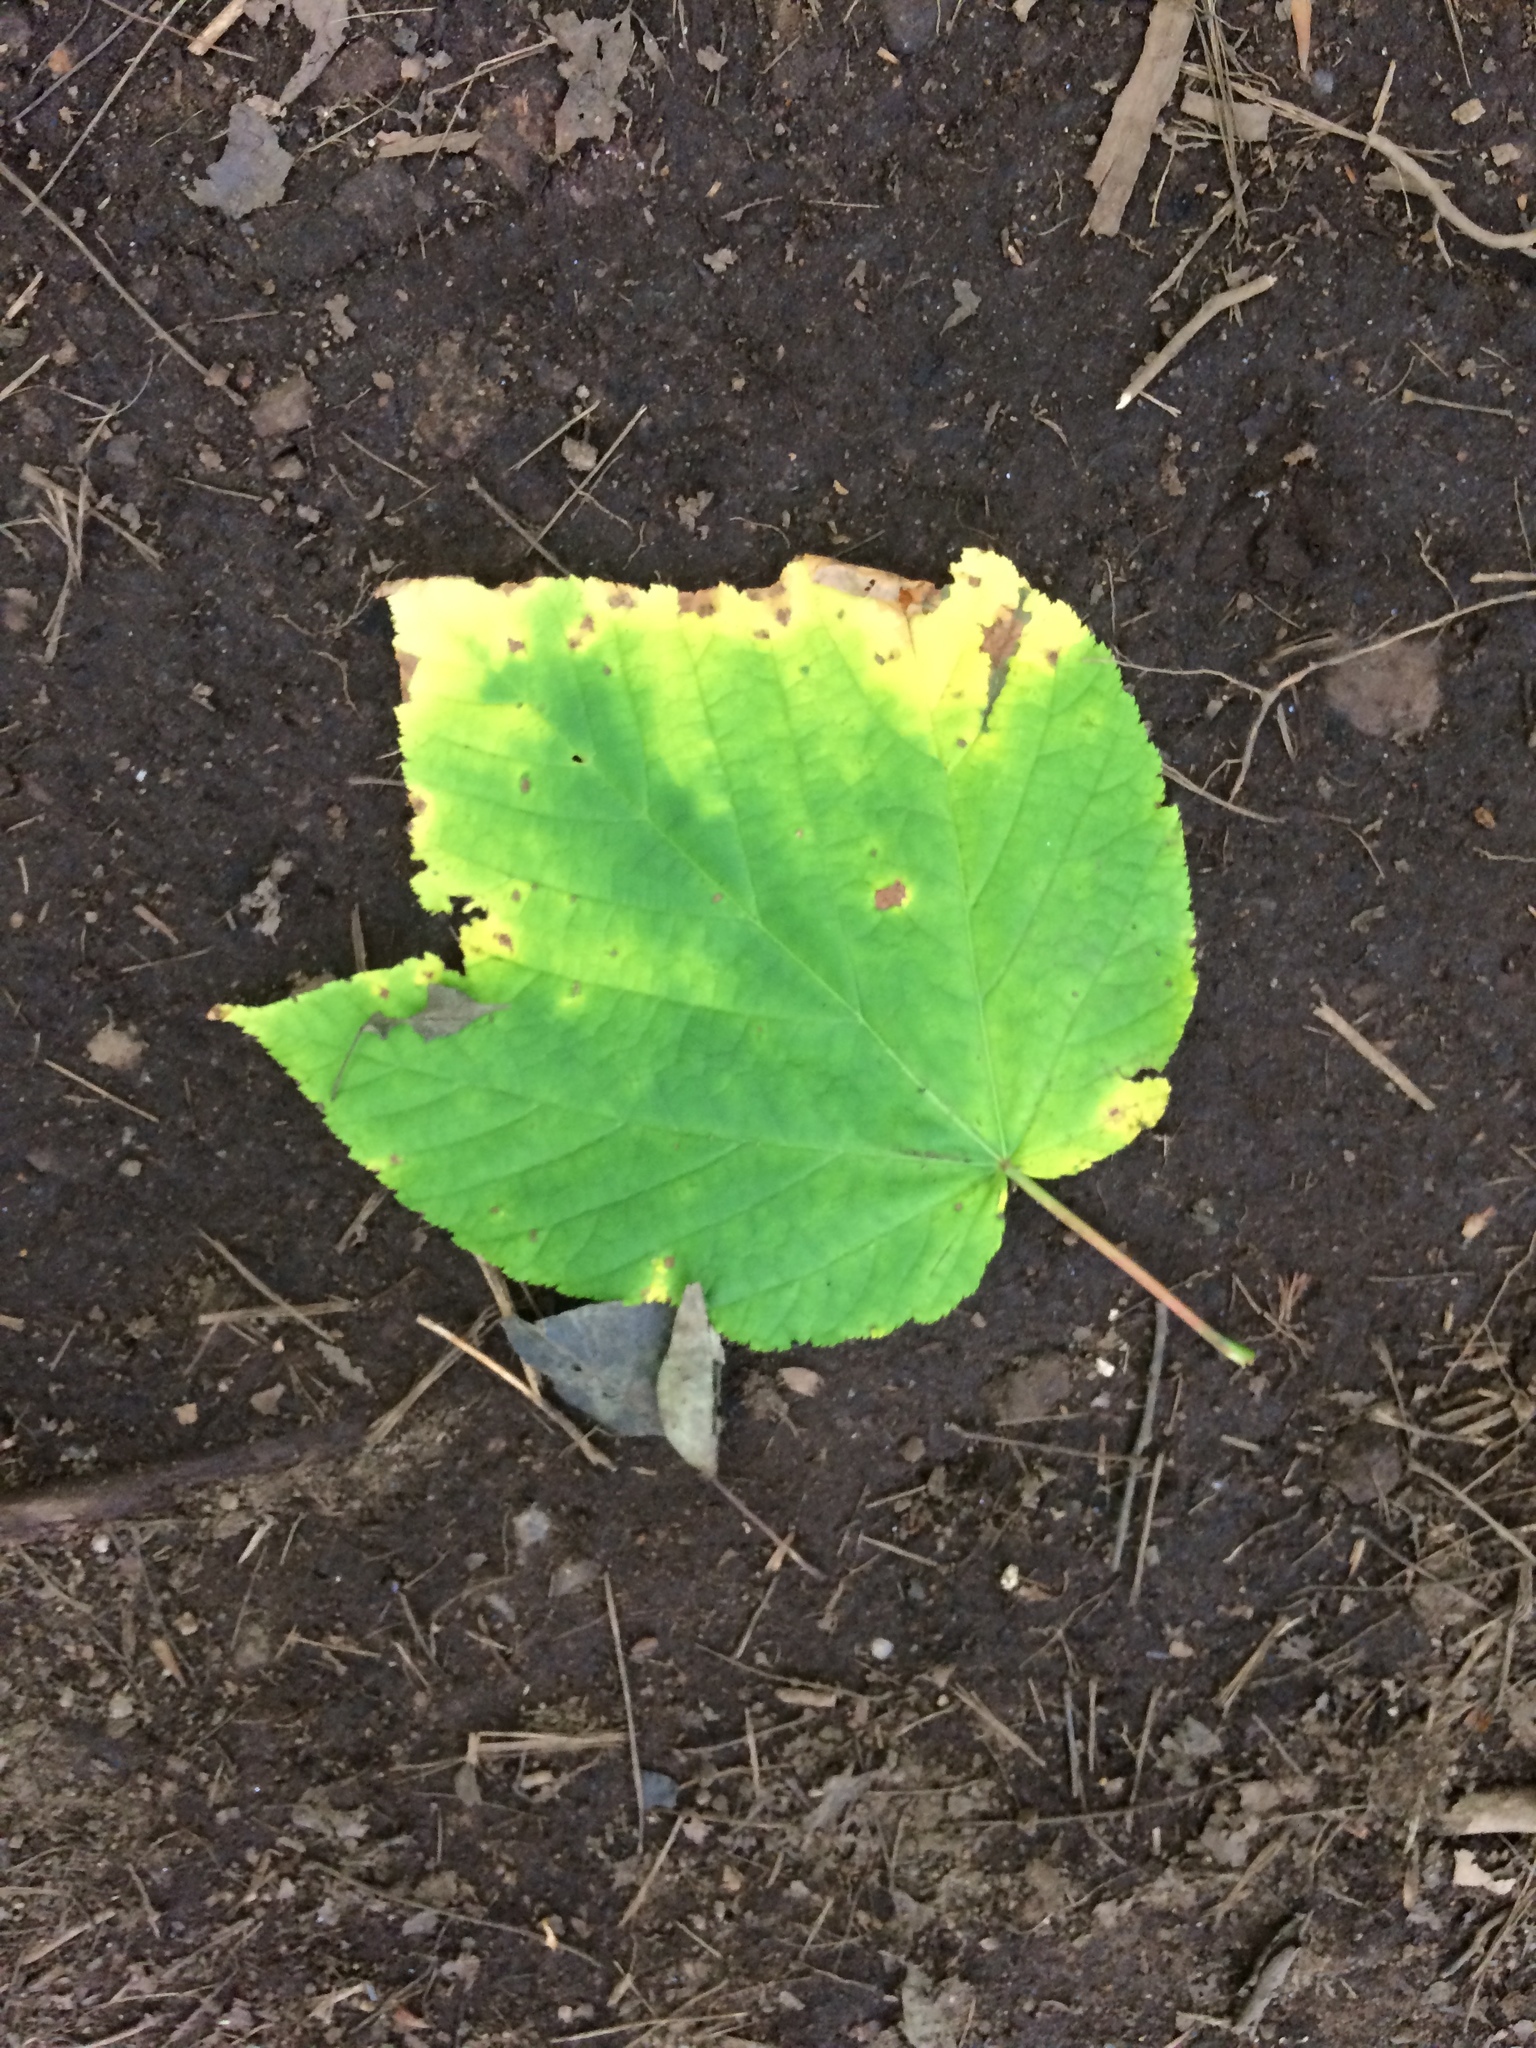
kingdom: Plantae
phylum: Tracheophyta
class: Magnoliopsida
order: Sapindales
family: Sapindaceae
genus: Acer
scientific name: Acer pensylvanicum
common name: Moosewood
